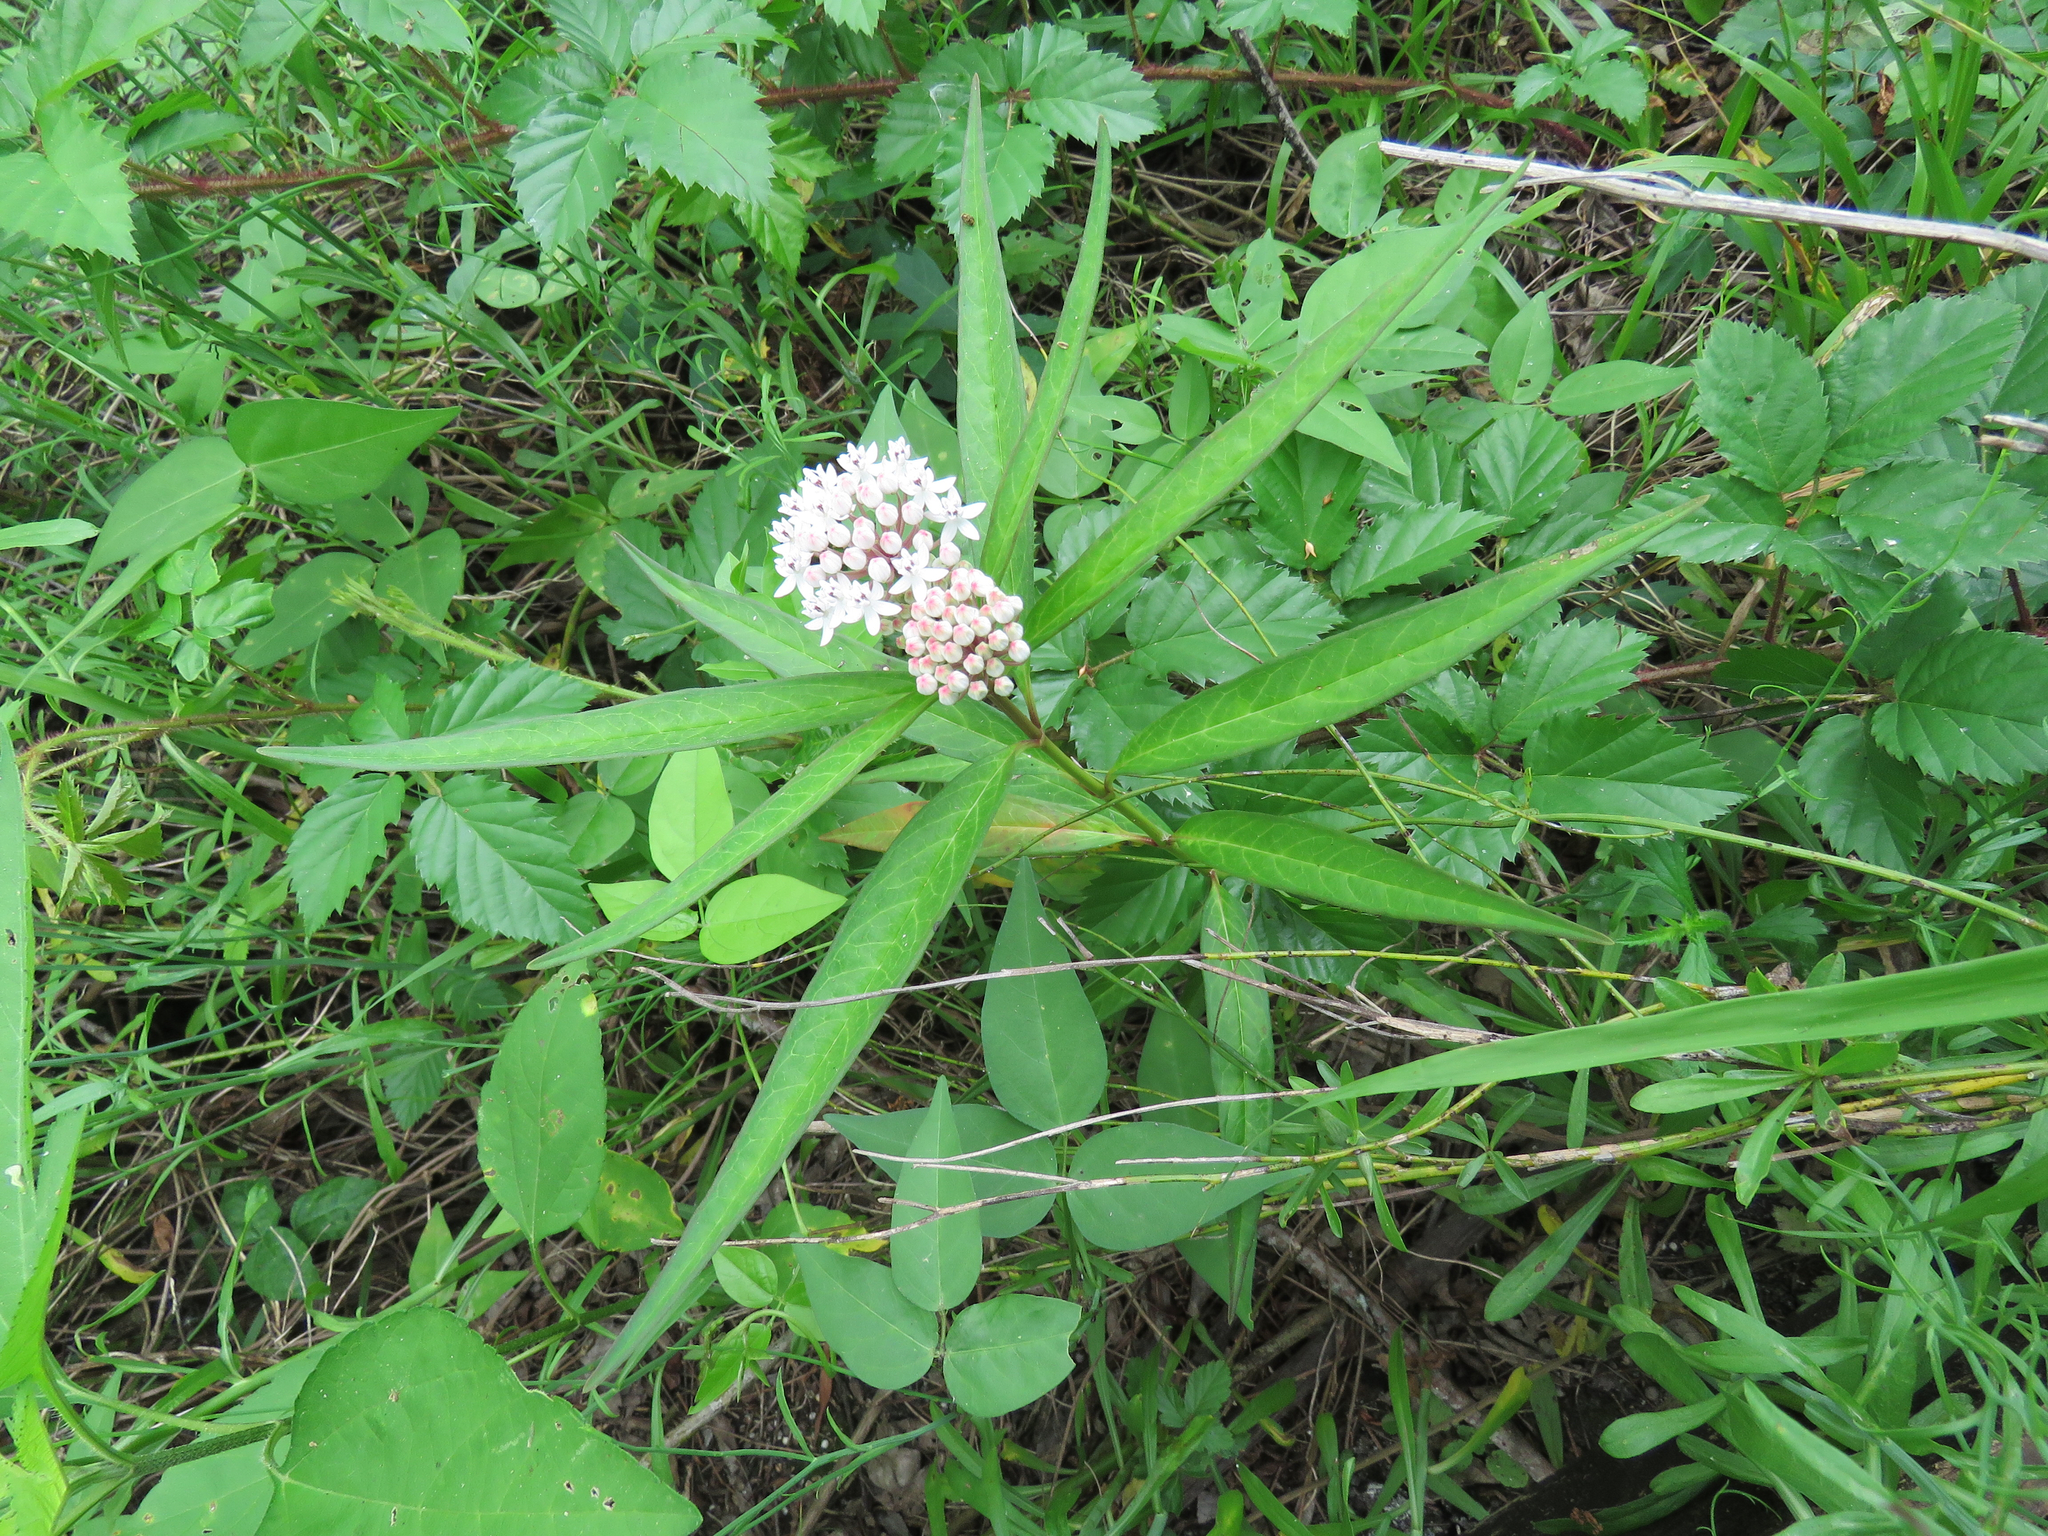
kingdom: Plantae
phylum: Tracheophyta
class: Magnoliopsida
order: Gentianales
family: Apocynaceae
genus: Asclepias
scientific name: Asclepias perennis
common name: Smooth-seed milkweed
